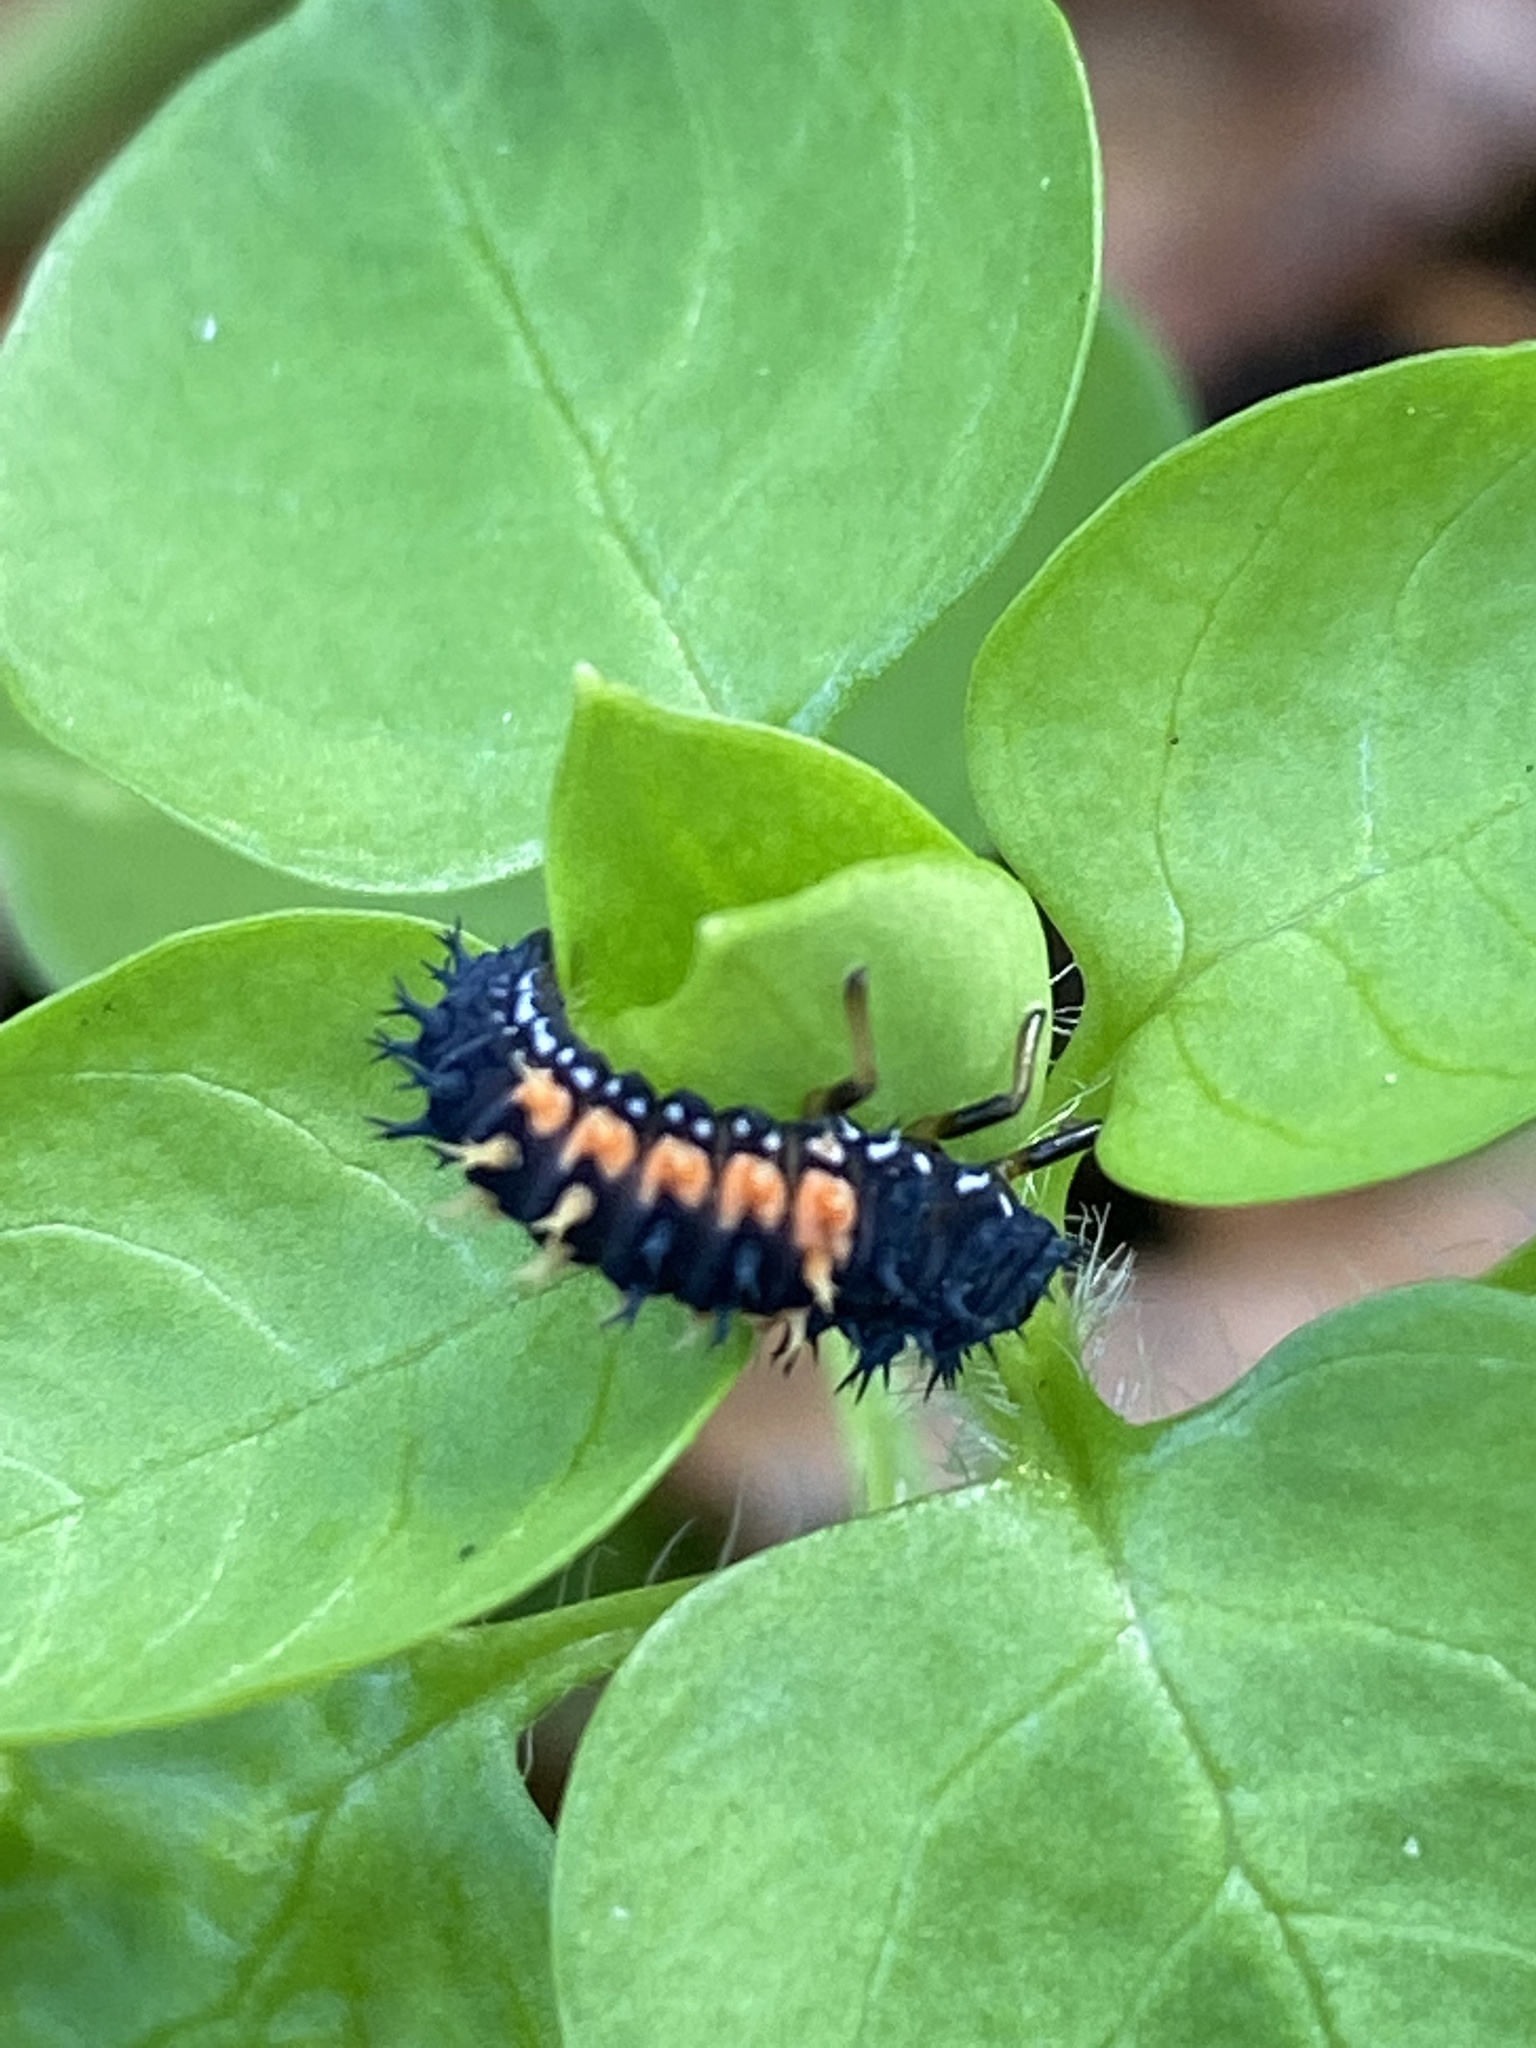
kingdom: Animalia
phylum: Arthropoda
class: Insecta
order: Coleoptera
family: Coccinellidae
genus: Harmonia
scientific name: Harmonia axyridis
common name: Harlequin ladybird
